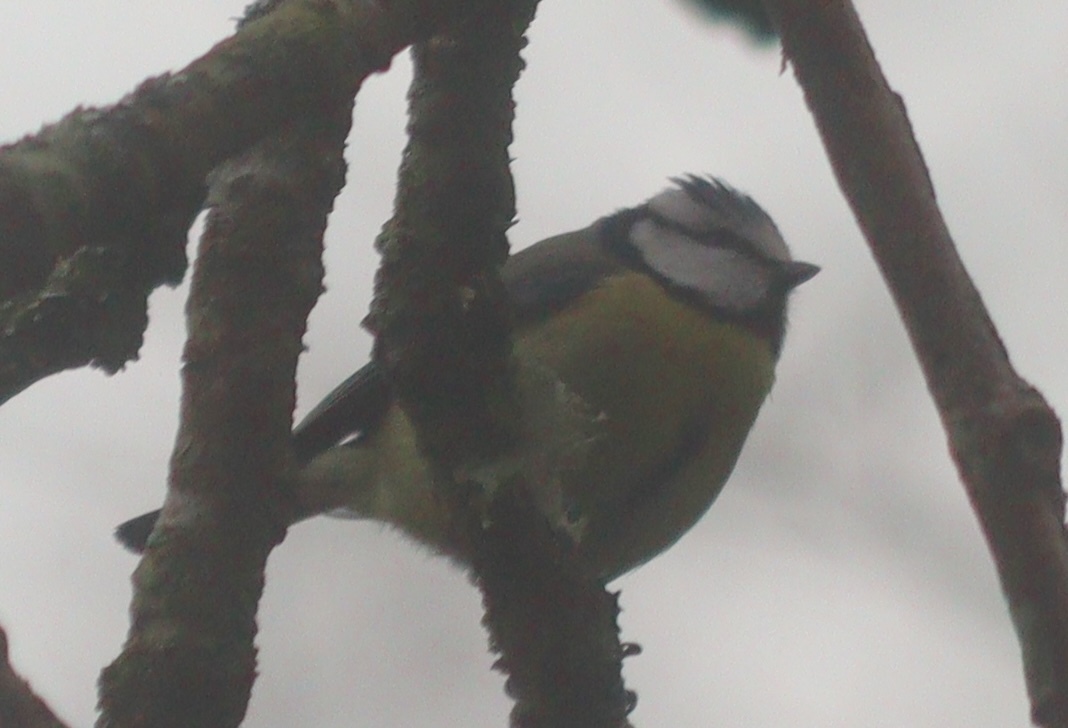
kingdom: Animalia
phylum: Chordata
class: Aves
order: Passeriformes
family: Paridae
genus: Cyanistes
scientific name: Cyanistes caeruleus
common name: Eurasian blue tit
